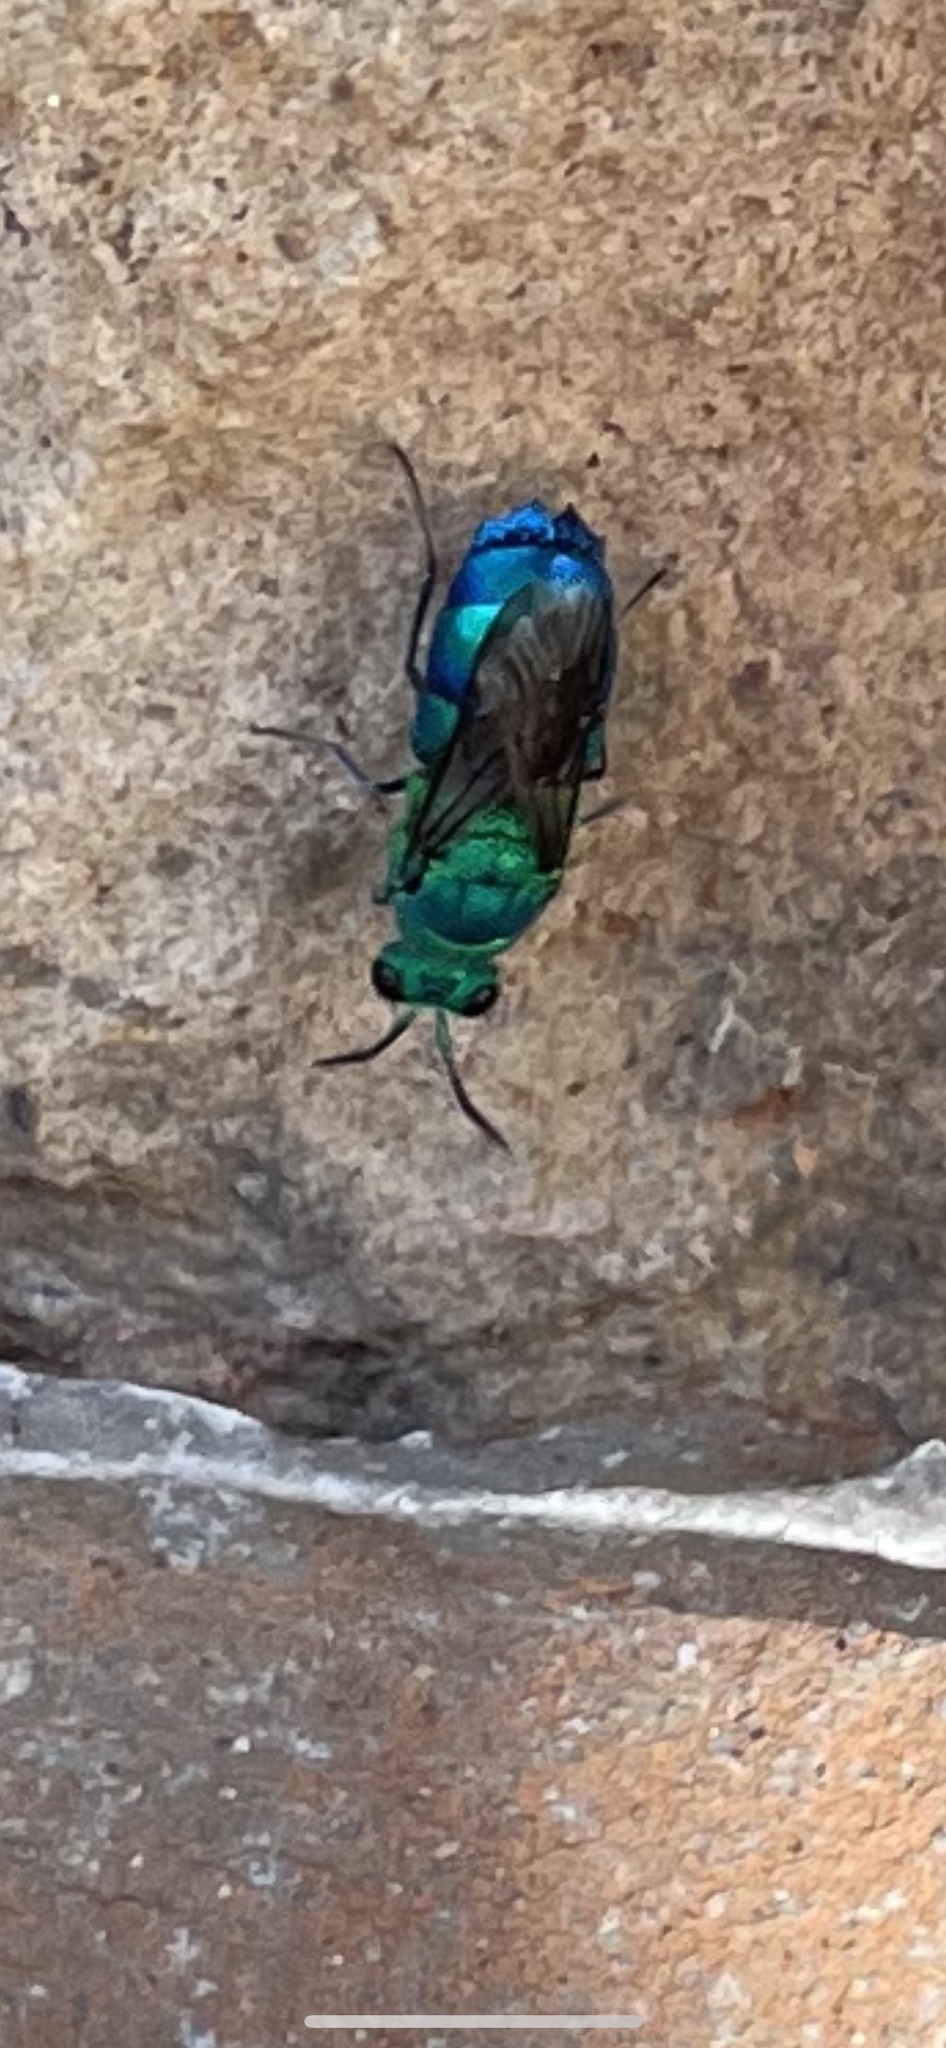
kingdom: Animalia
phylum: Arthropoda
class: Insecta
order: Hymenoptera
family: Chrysididae
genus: Chrysis
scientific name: Chrysis conica
